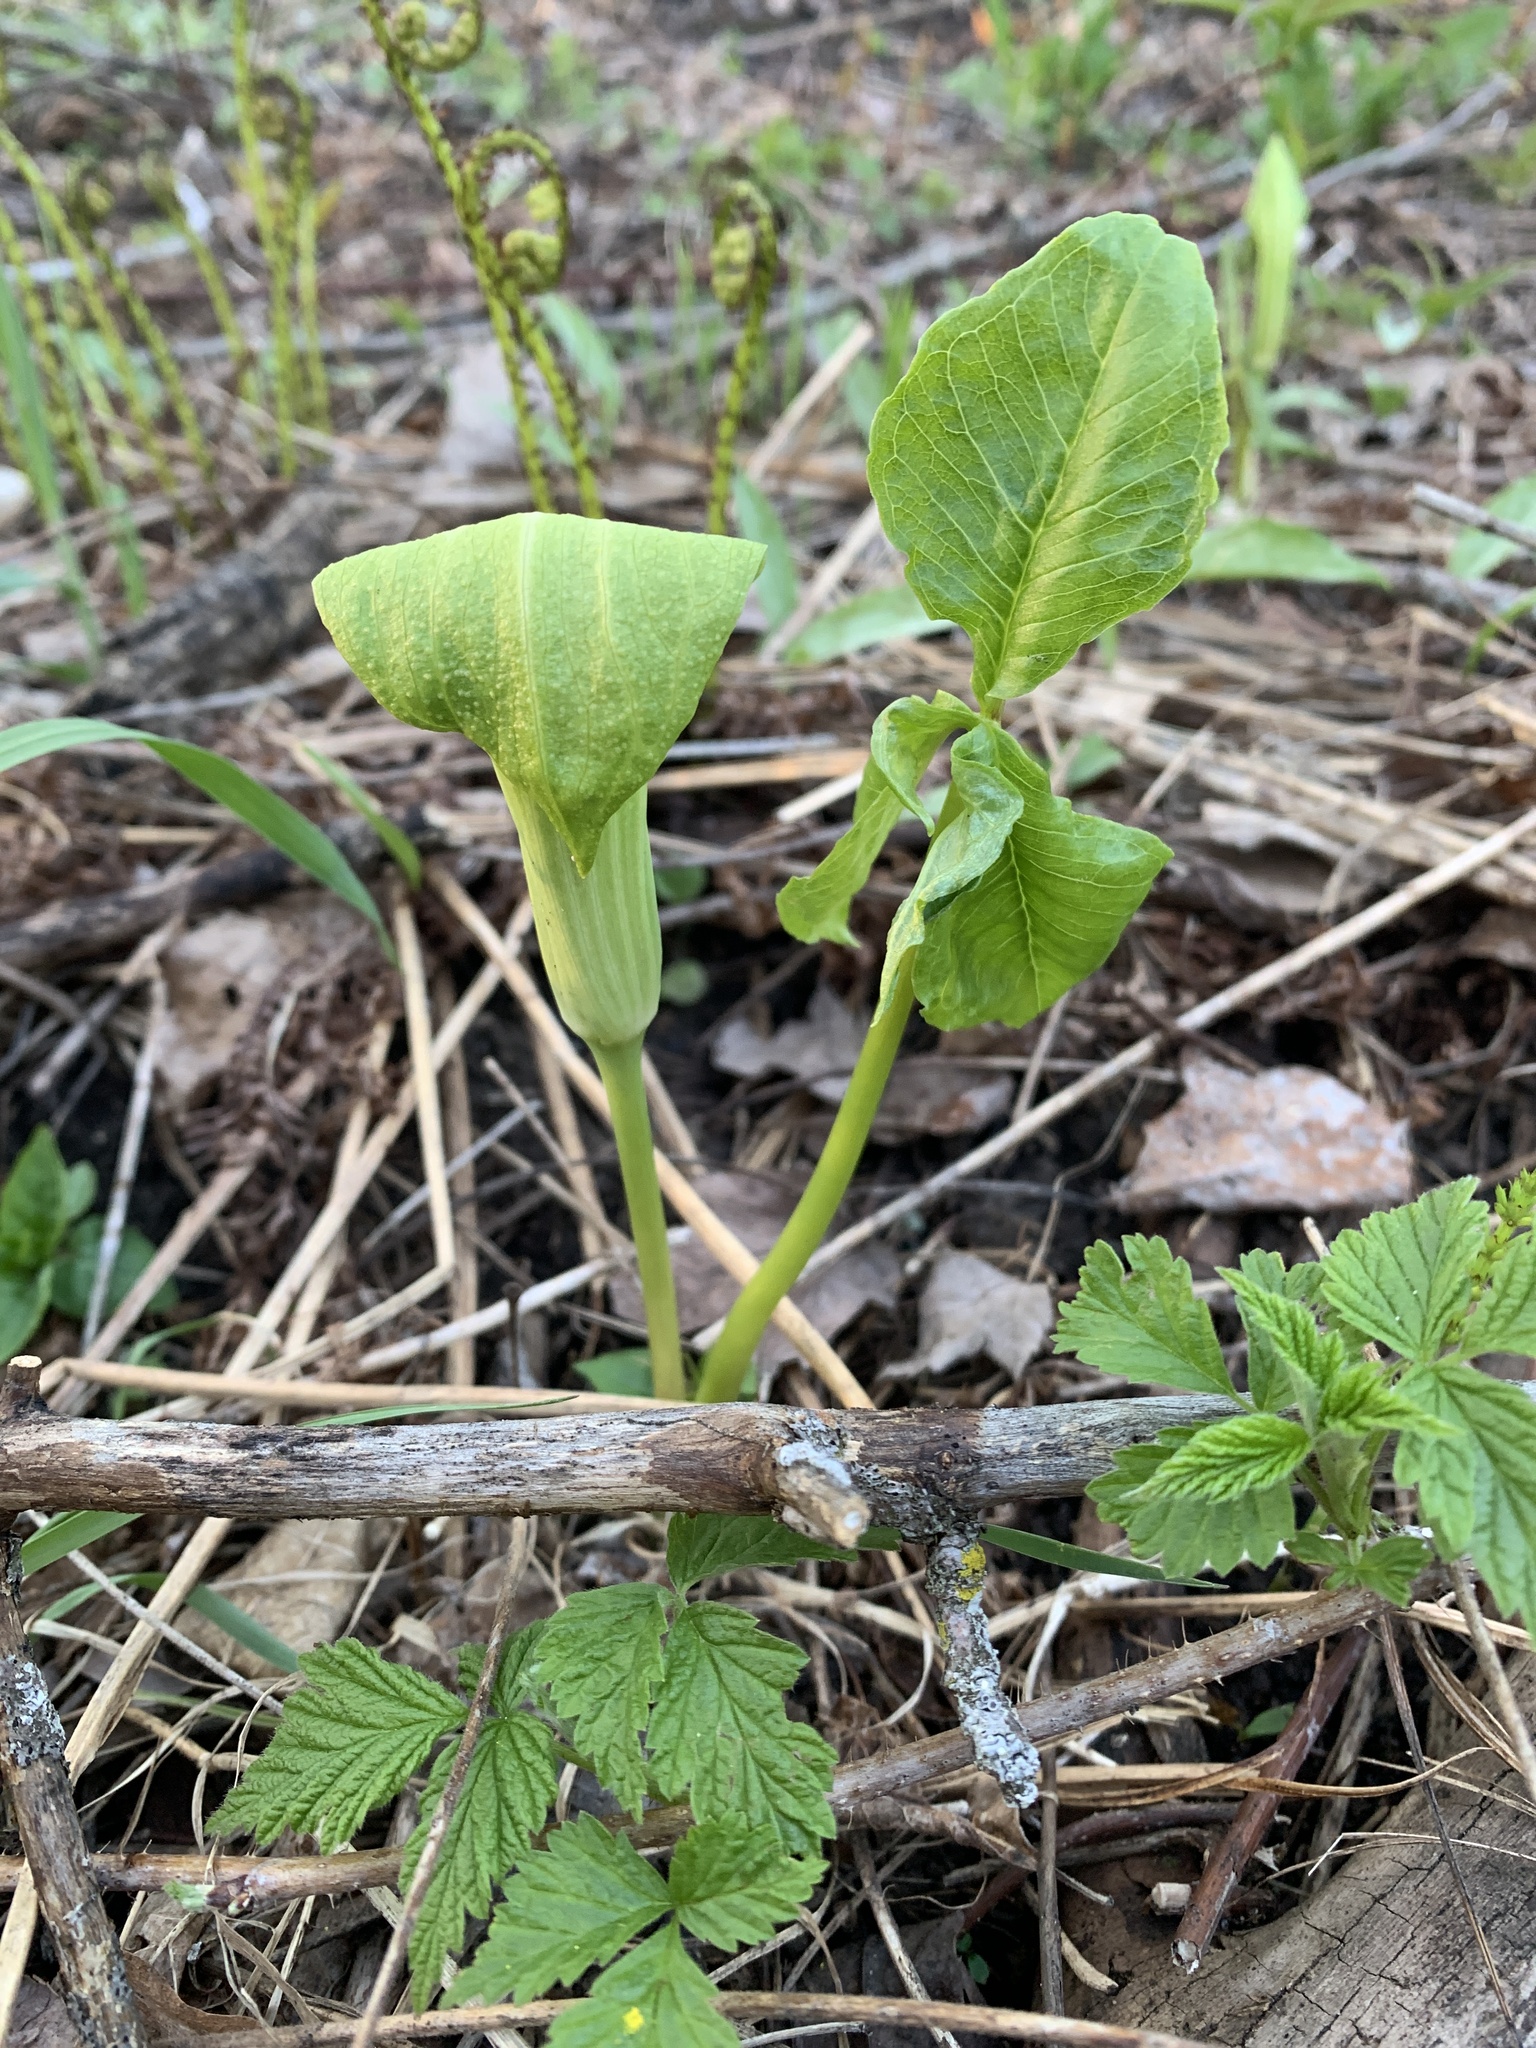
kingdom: Plantae
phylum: Tracheophyta
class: Liliopsida
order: Alismatales
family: Araceae
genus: Arisaema
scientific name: Arisaema triphyllum
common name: Jack-in-the-pulpit
